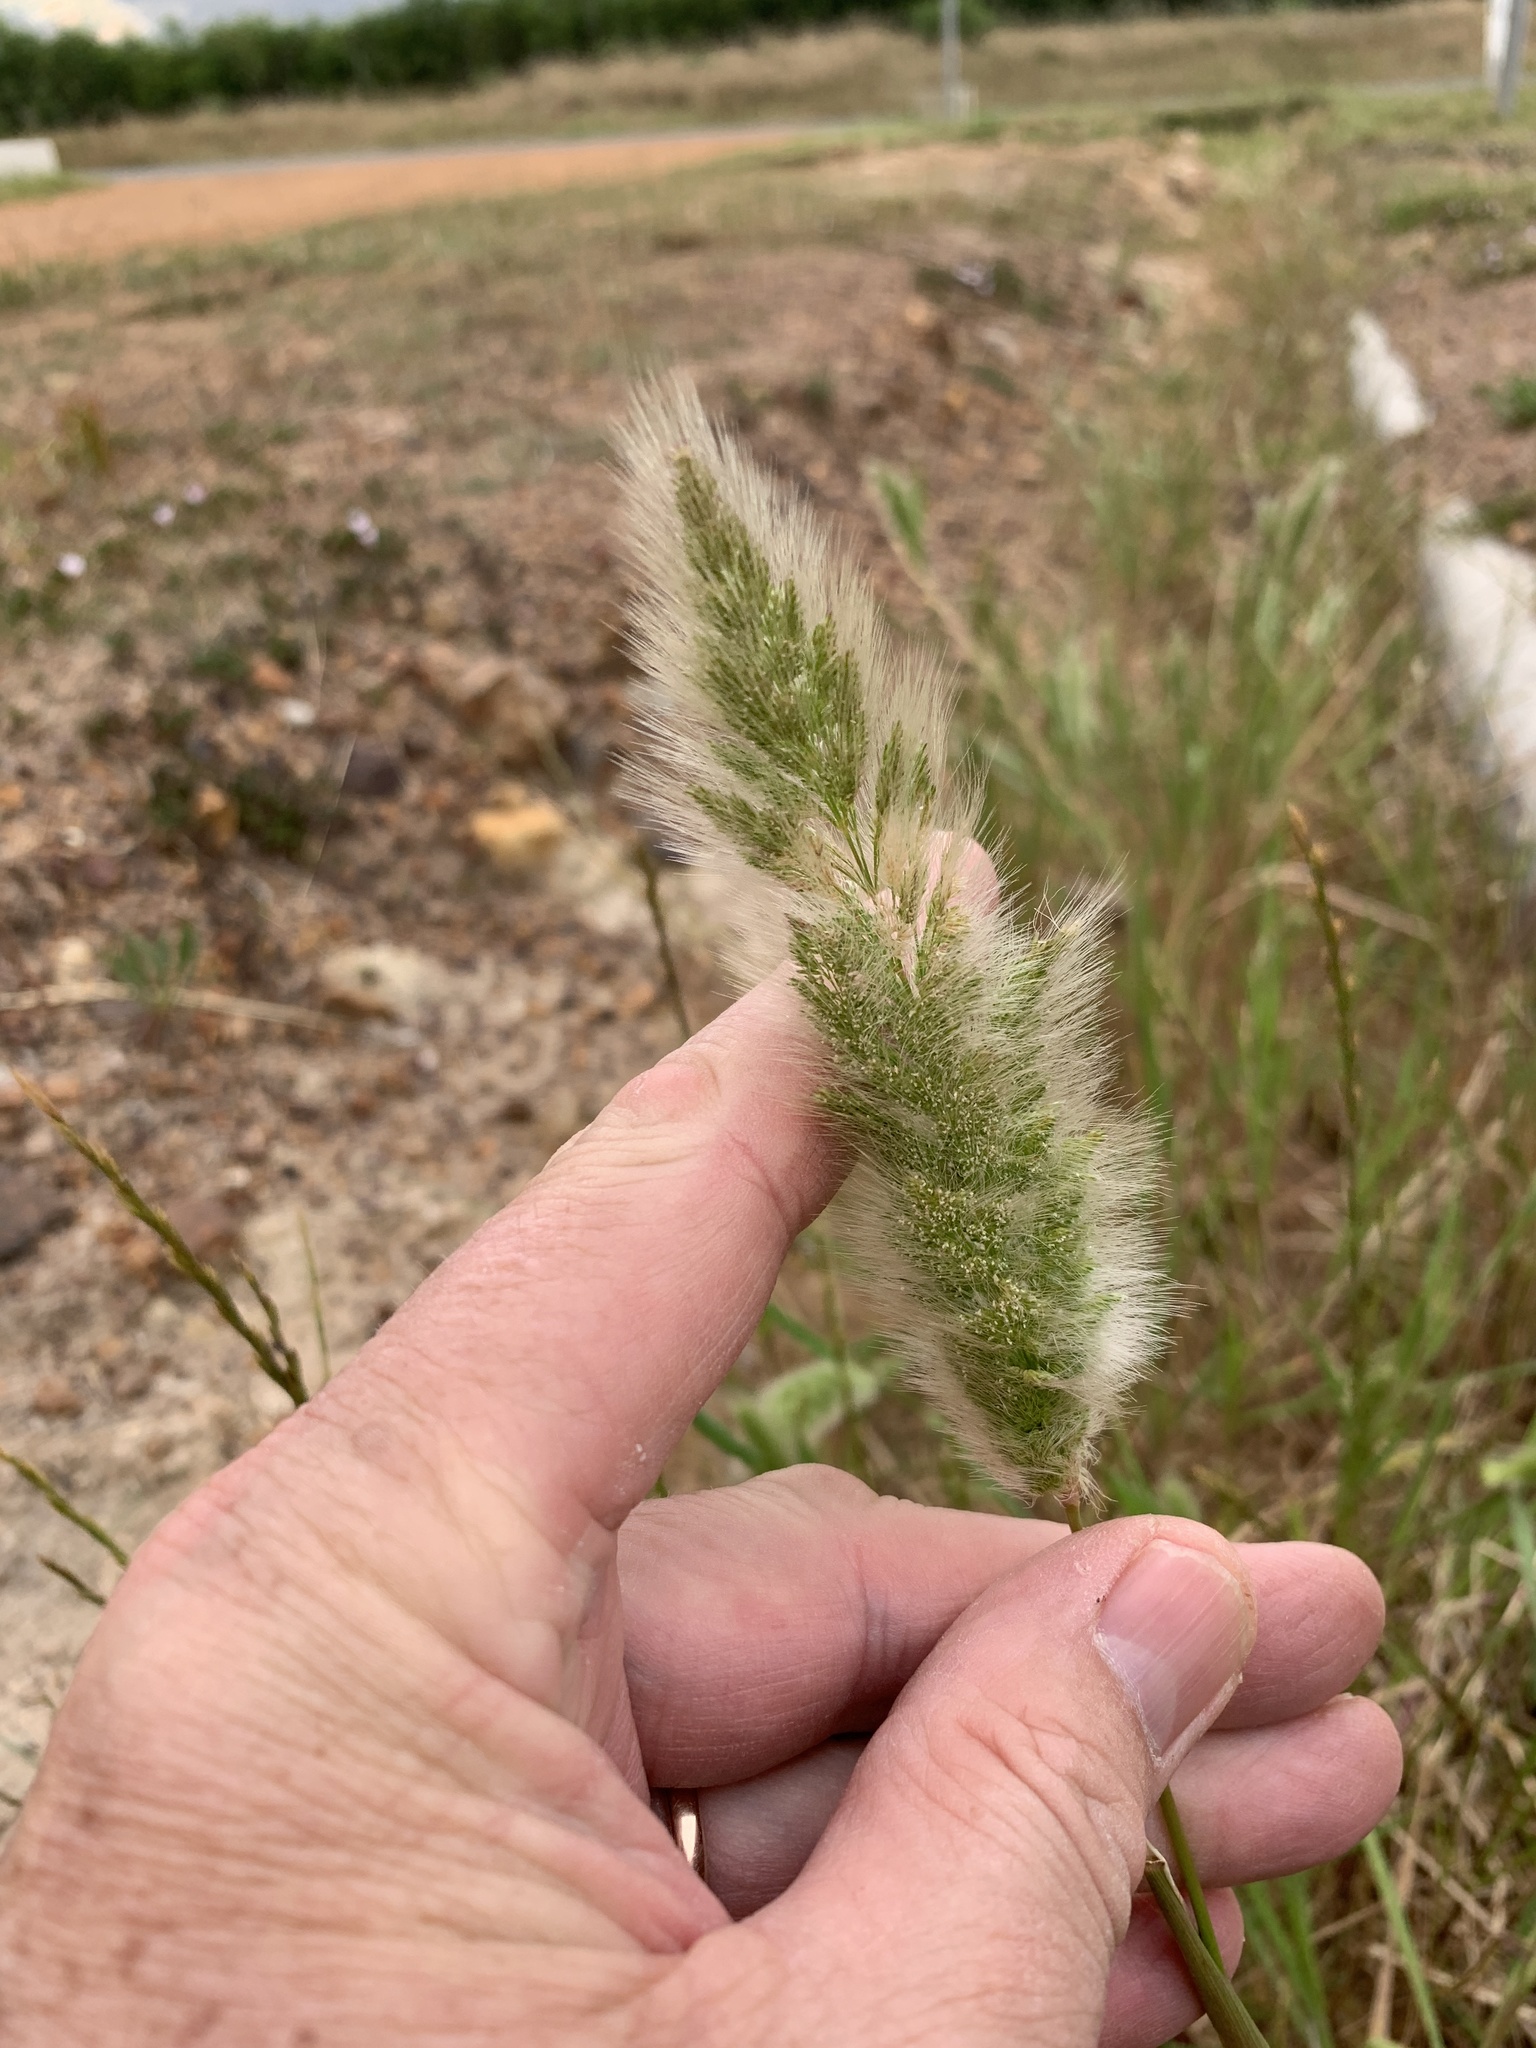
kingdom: Plantae
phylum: Tracheophyta
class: Liliopsida
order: Poales
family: Poaceae
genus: Polypogon
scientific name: Polypogon monspeliensis
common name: Annual rabbitsfoot grass
